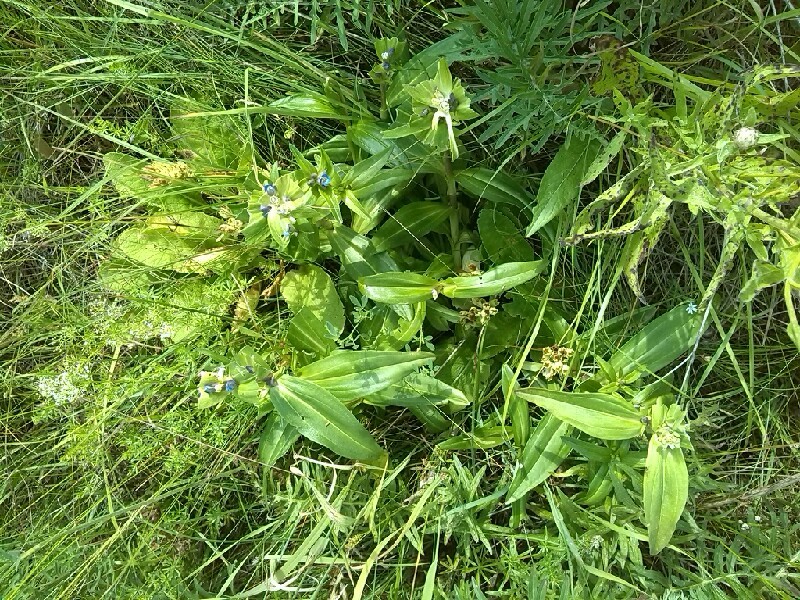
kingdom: Plantae
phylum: Tracheophyta
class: Magnoliopsida
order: Gentianales
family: Gentianaceae
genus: Gentiana
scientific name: Gentiana cruciata
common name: Cross gentian
